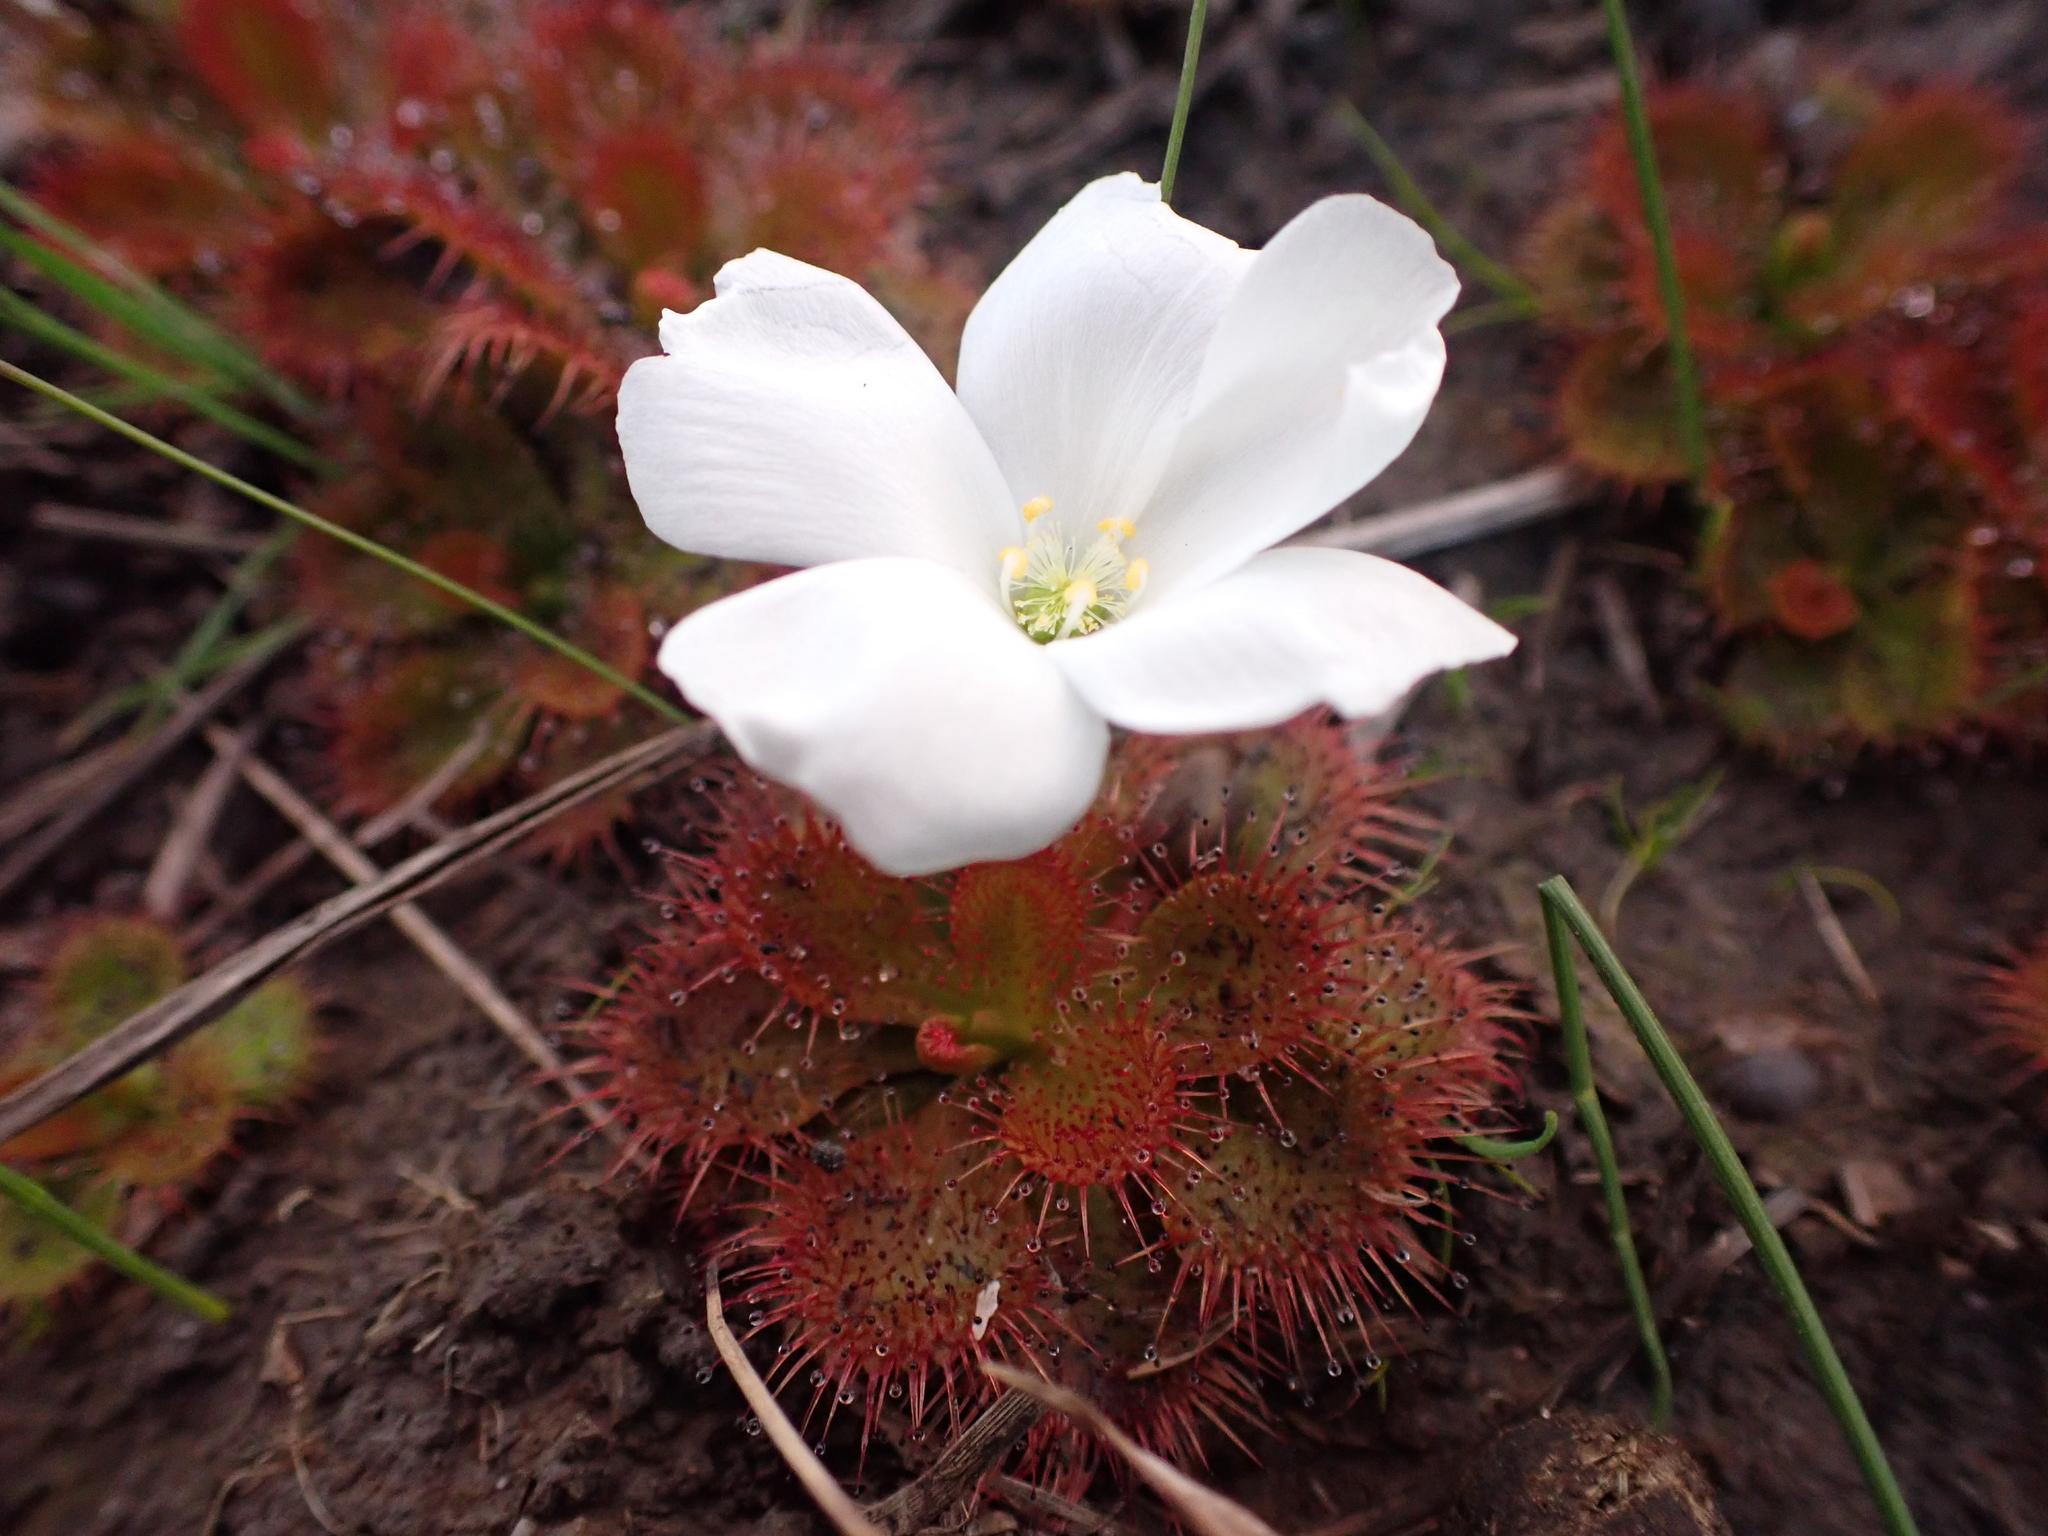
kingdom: Plantae
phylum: Tracheophyta
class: Magnoliopsida
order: Caryophyllales
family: Droseraceae
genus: Drosera
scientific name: Drosera aberrans
